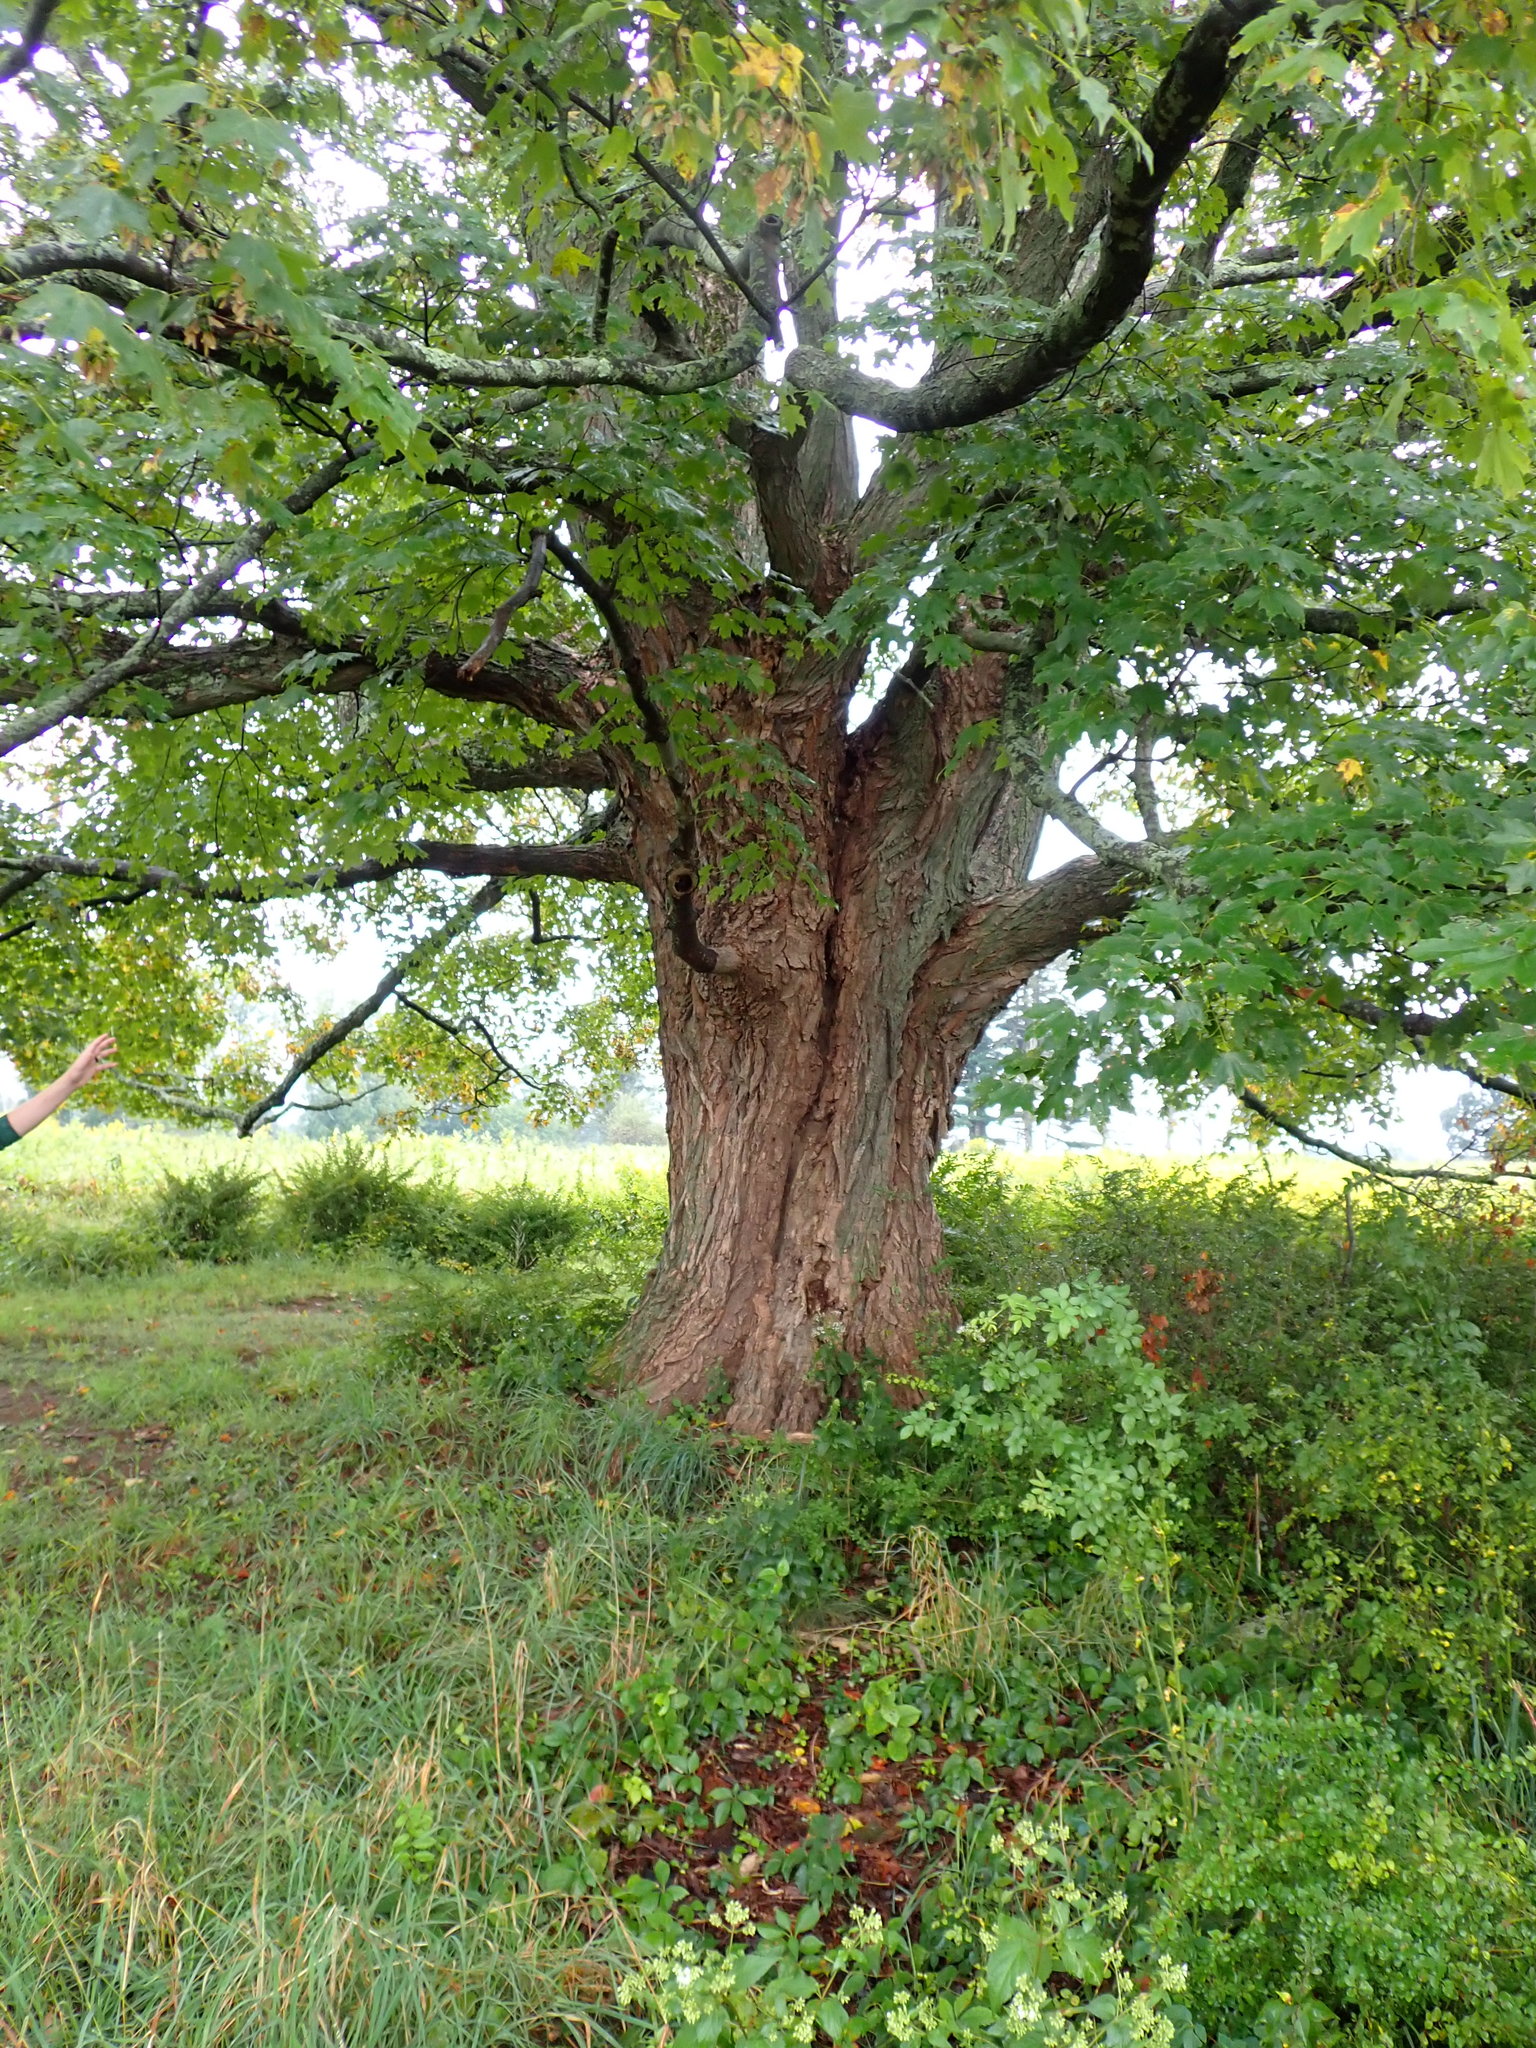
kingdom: Plantae
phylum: Tracheophyta
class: Magnoliopsida
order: Sapindales
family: Sapindaceae
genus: Acer
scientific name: Acer saccharum
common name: Sugar maple
